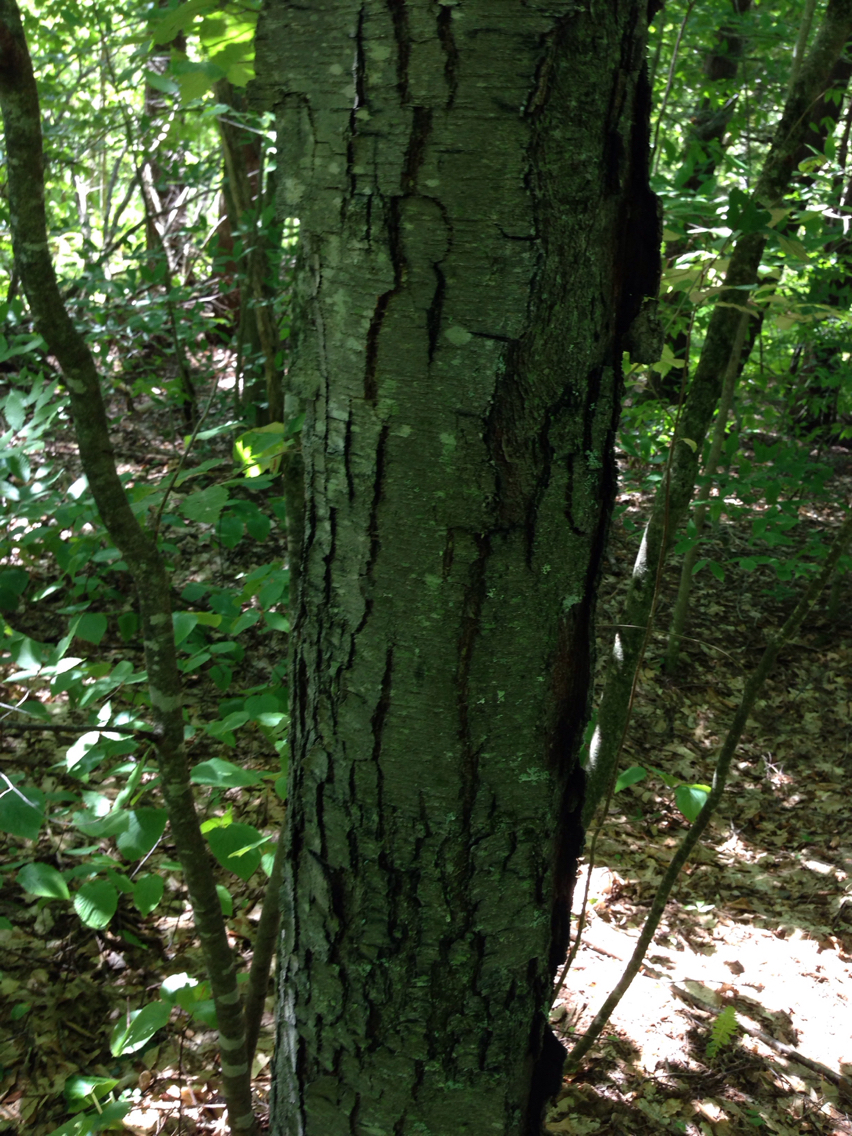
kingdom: Plantae
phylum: Tracheophyta
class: Magnoliopsida
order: Fagales
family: Betulaceae
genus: Betula
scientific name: Betula lenta
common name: Black birch
